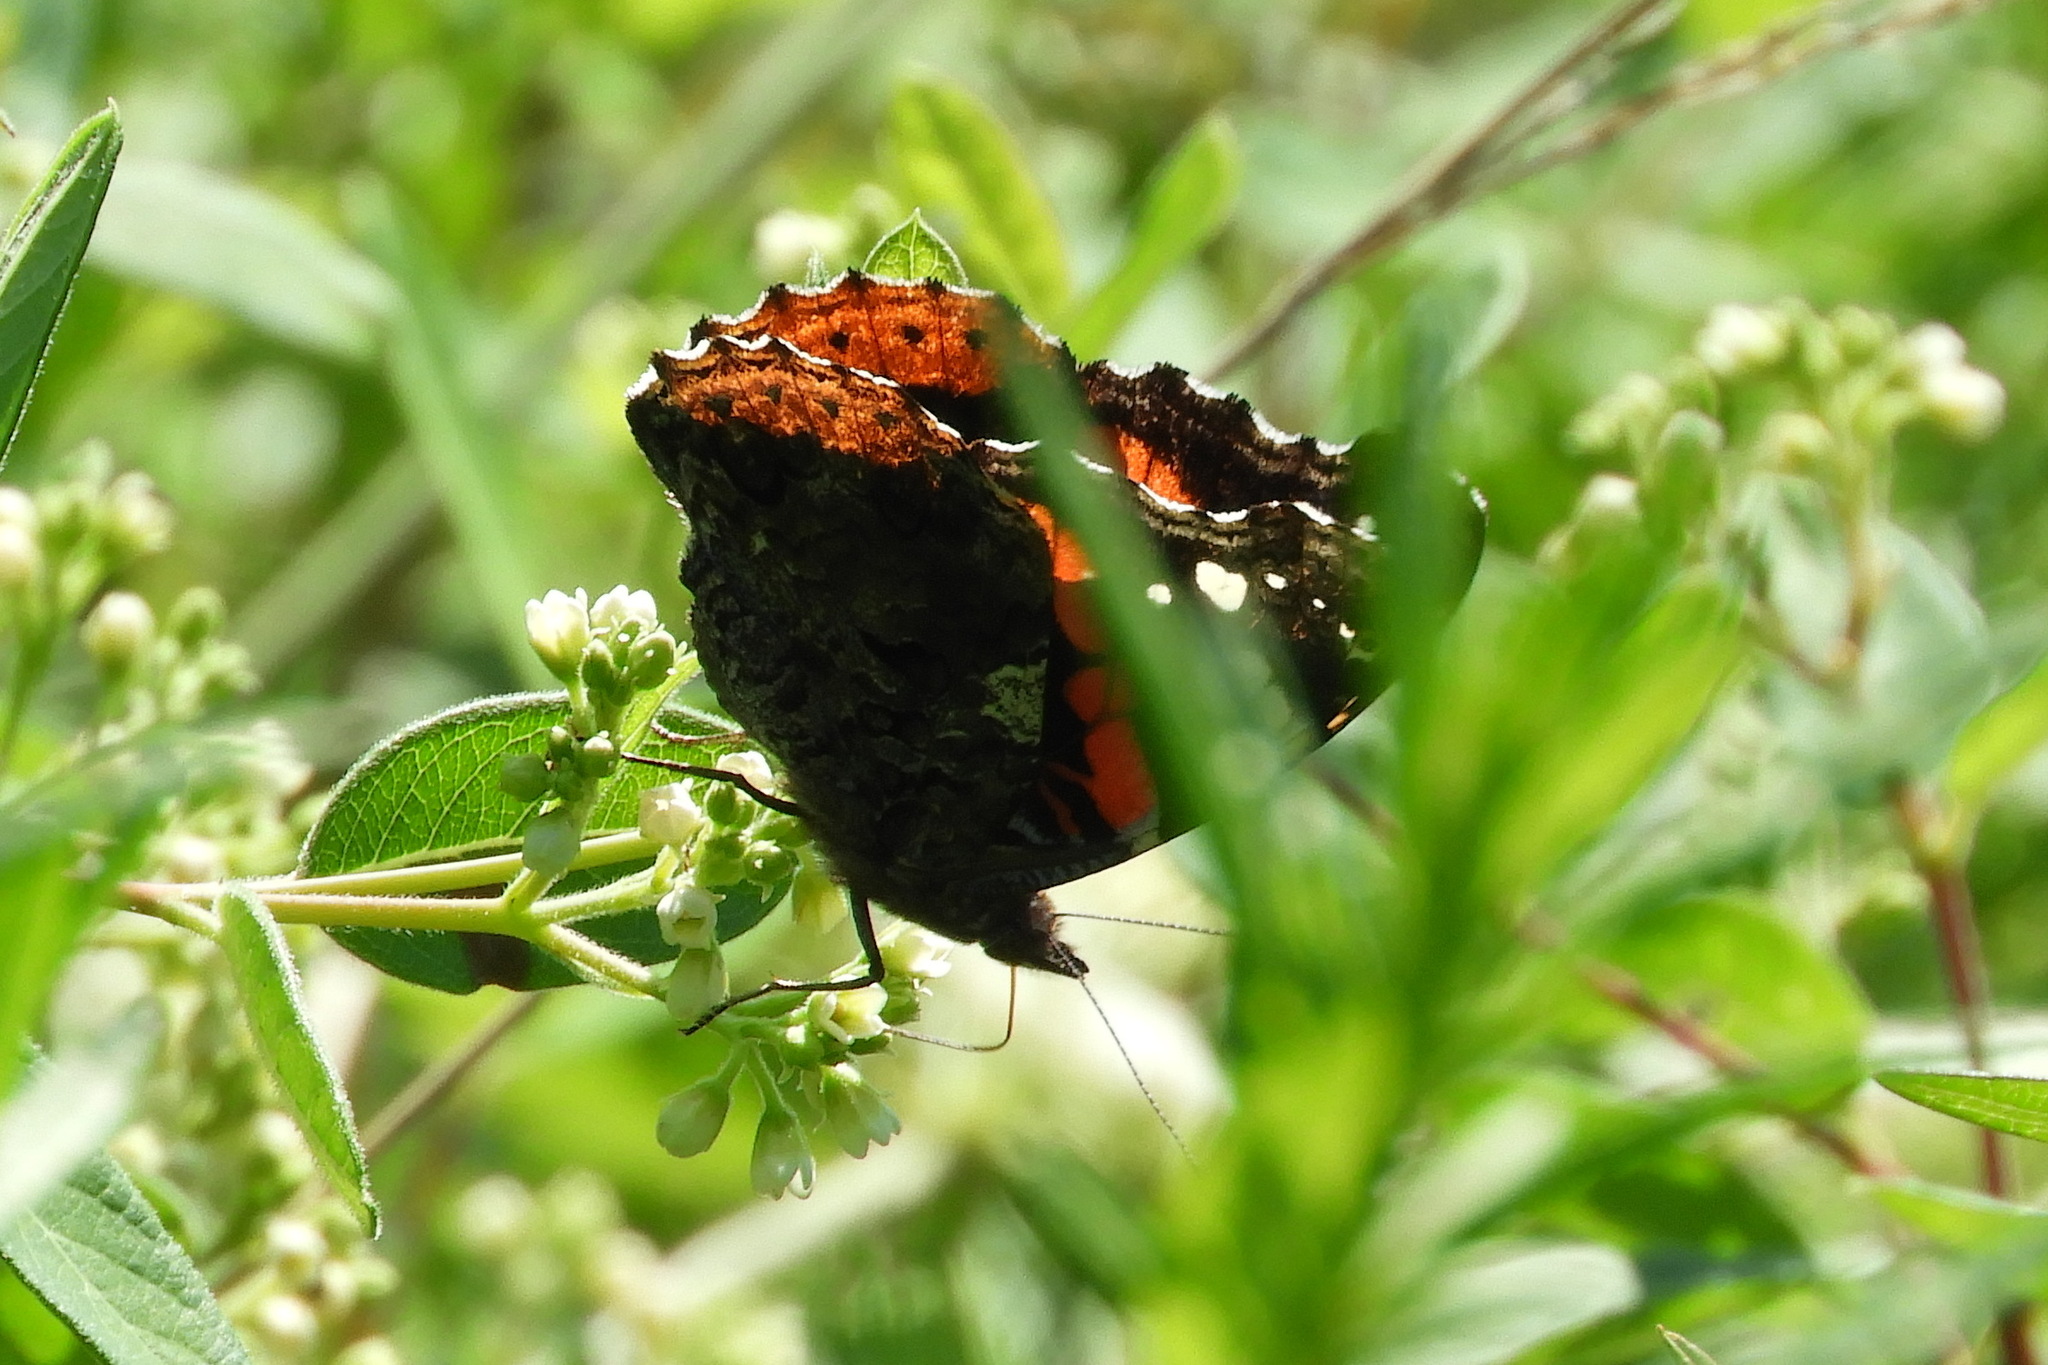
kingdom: Animalia
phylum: Arthropoda
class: Insecta
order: Lepidoptera
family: Nymphalidae
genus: Vanessa
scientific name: Vanessa atalanta
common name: Red admiral
